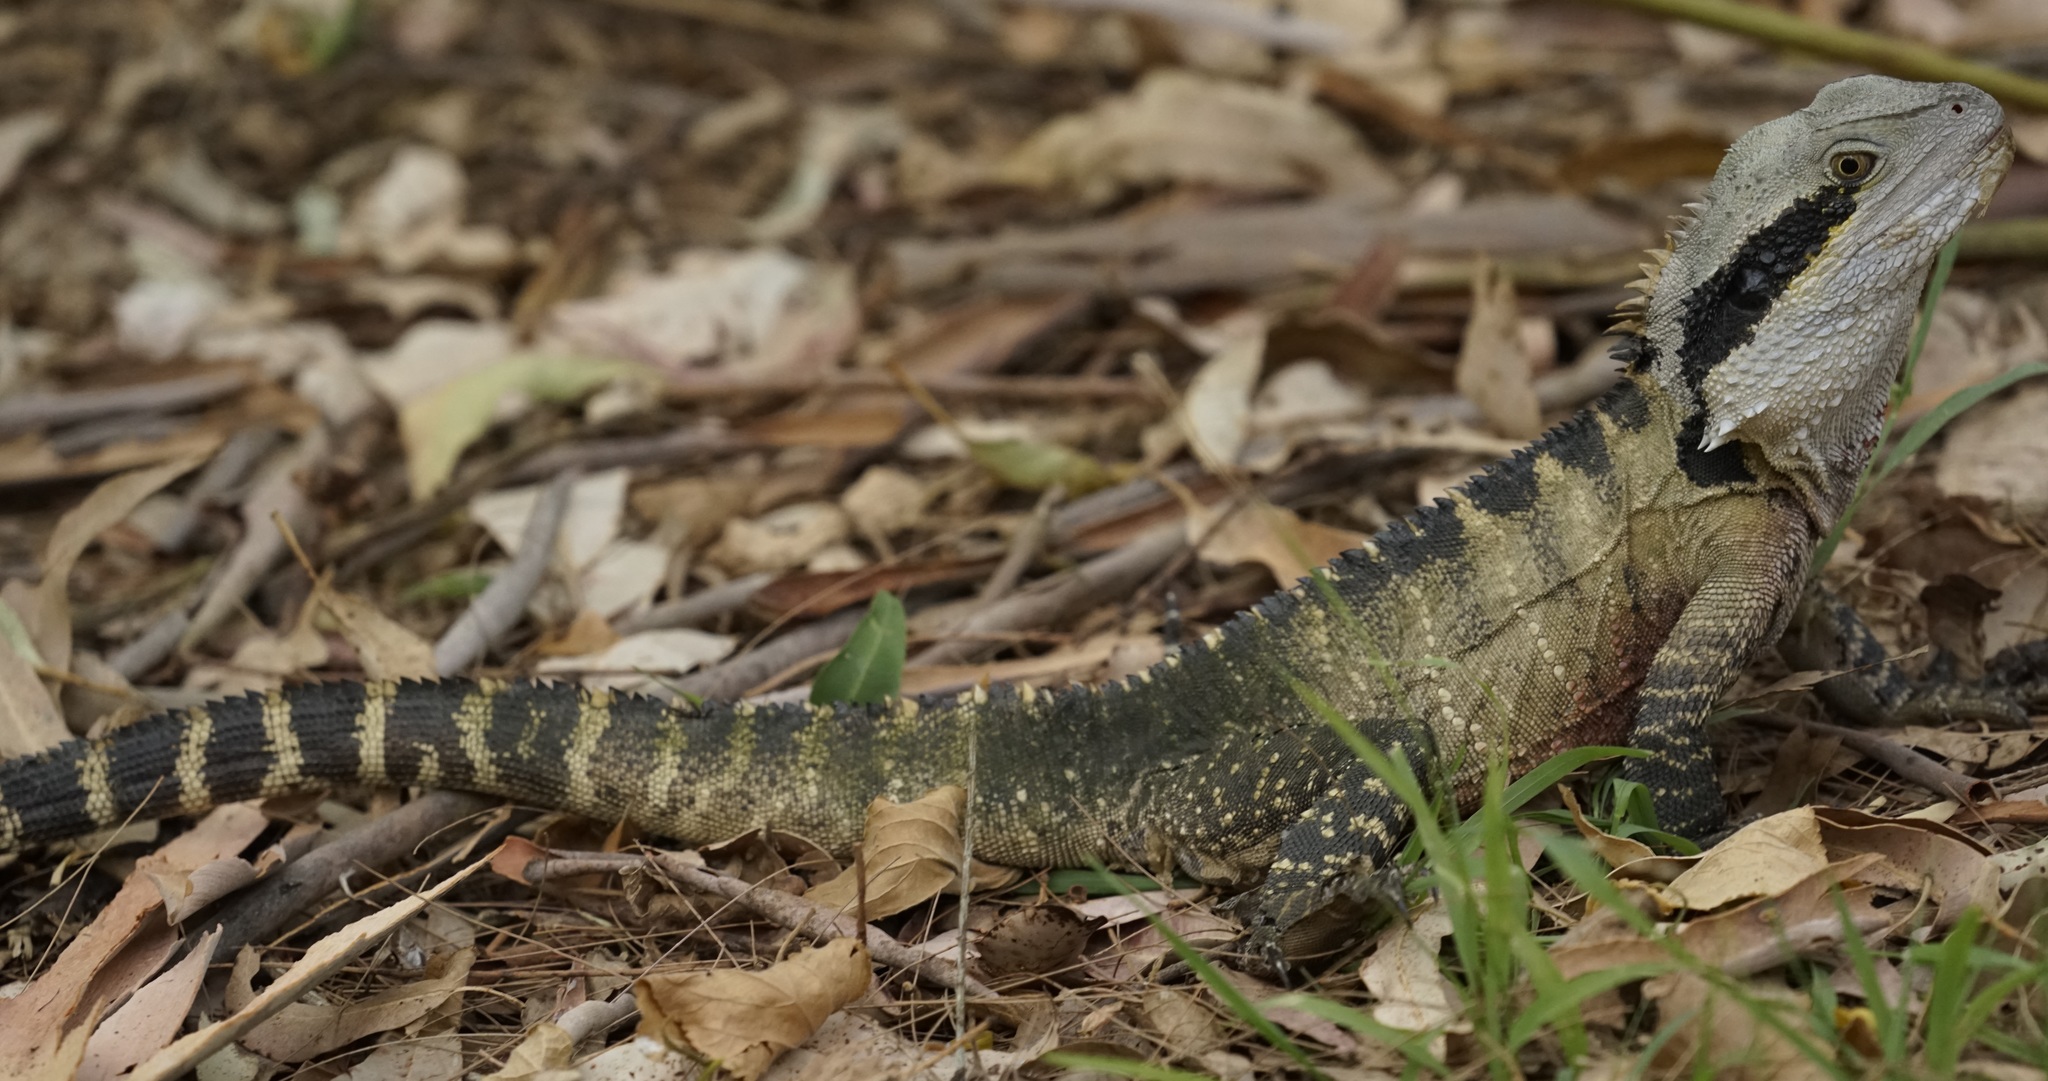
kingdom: Animalia
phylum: Chordata
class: Squamata
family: Agamidae
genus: Intellagama
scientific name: Intellagama lesueurii
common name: Eastern water dragon
